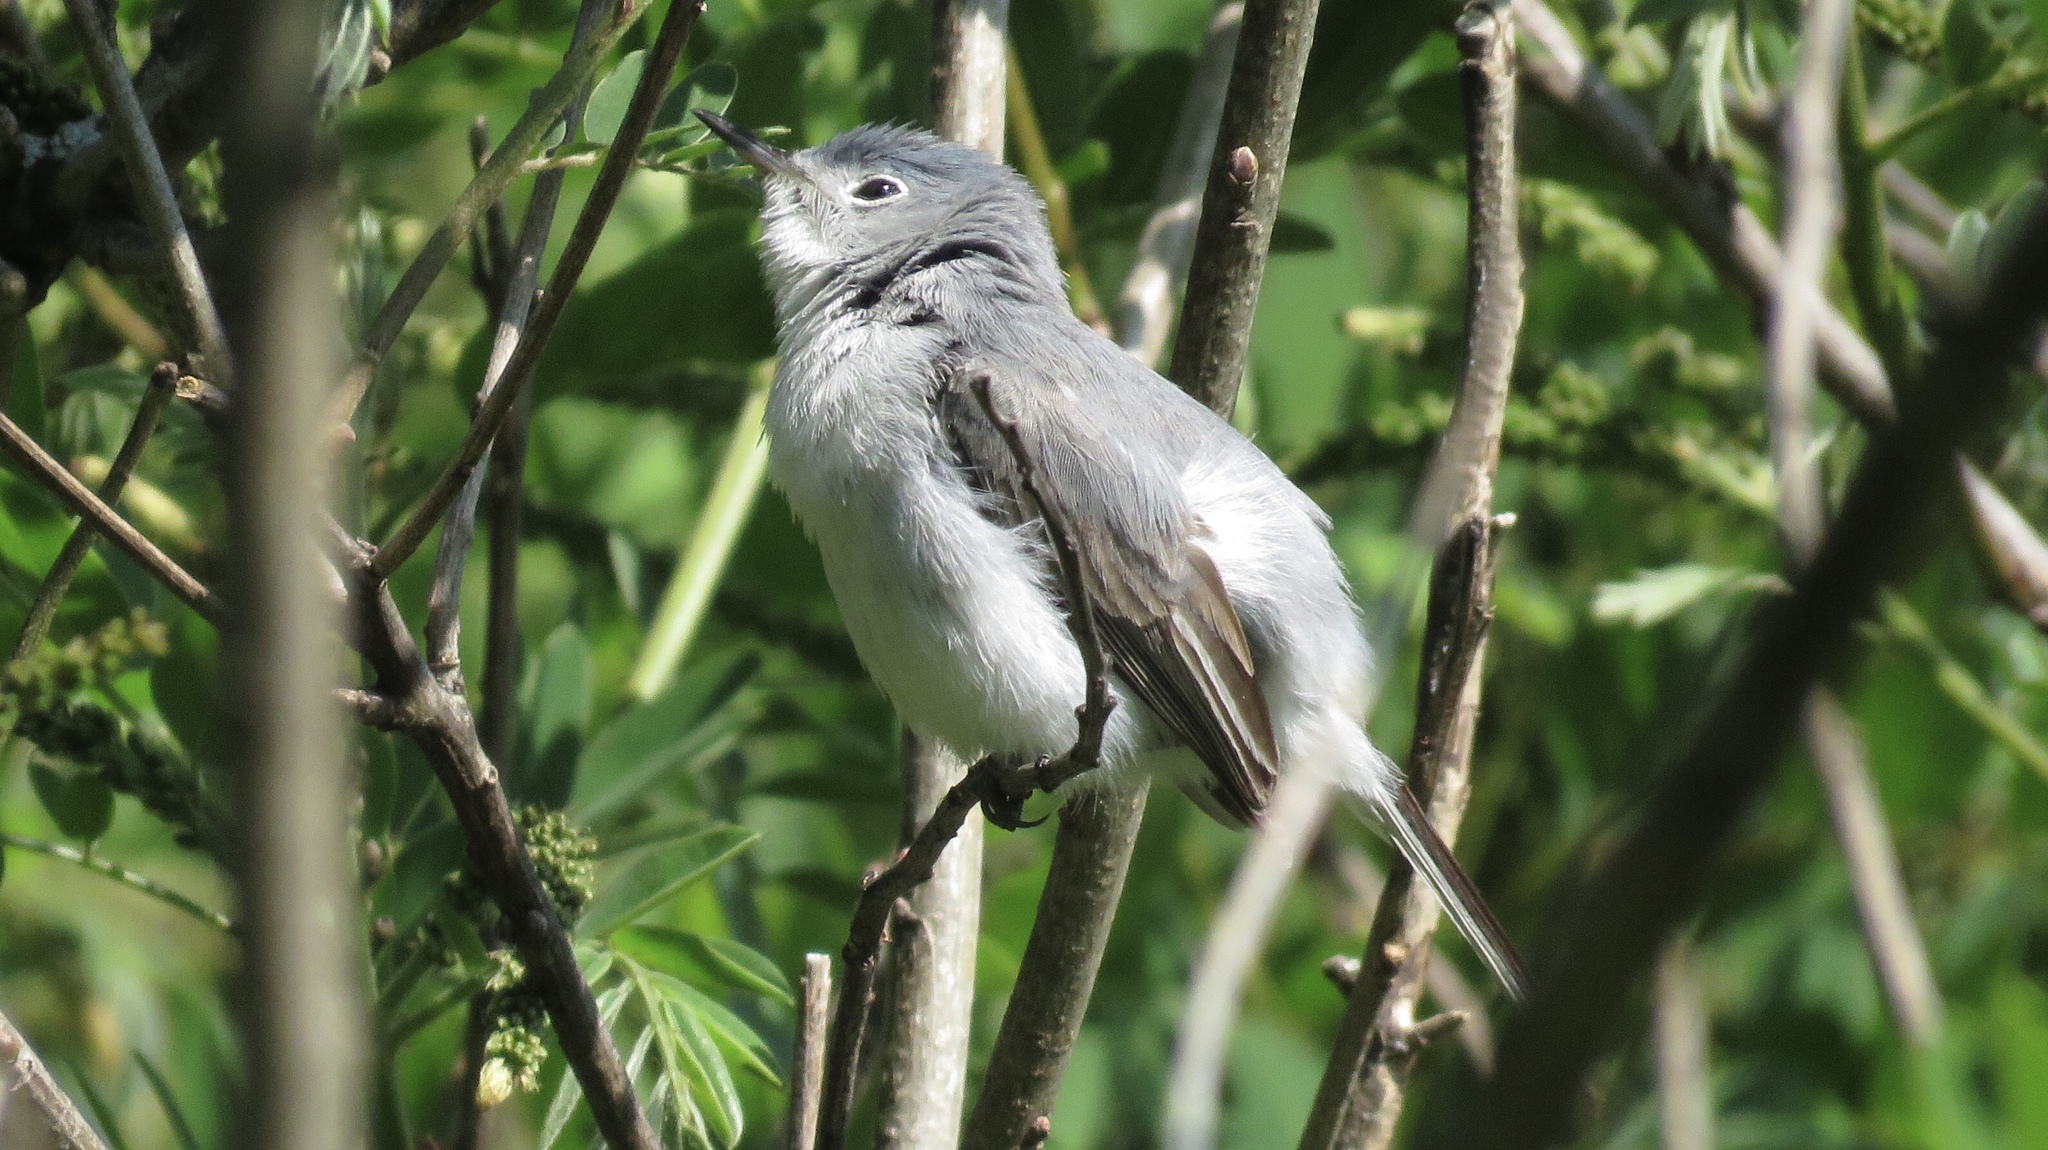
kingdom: Animalia
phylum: Chordata
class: Aves
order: Passeriformes
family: Polioptilidae
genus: Polioptila
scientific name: Polioptila caerulea
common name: Blue-gray gnatcatcher
